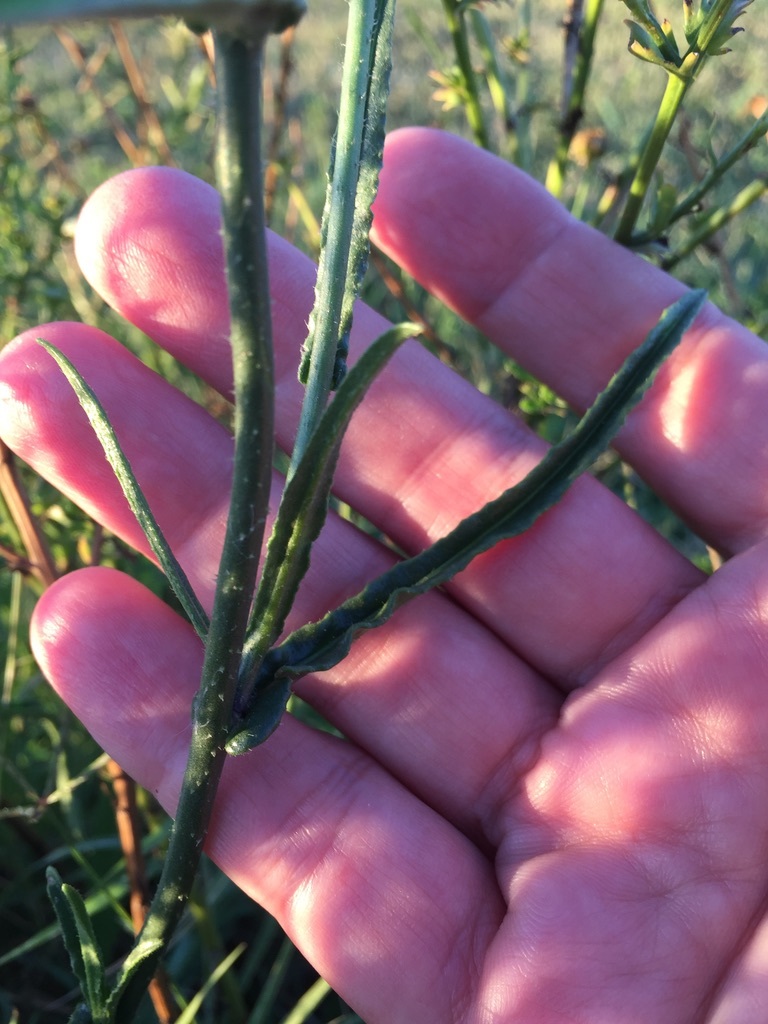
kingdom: Plantae
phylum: Tracheophyta
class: Magnoliopsida
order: Solanales
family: Solanaceae
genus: Nicotiana
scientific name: Nicotiana longiflora
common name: Long-flowered tobacco
